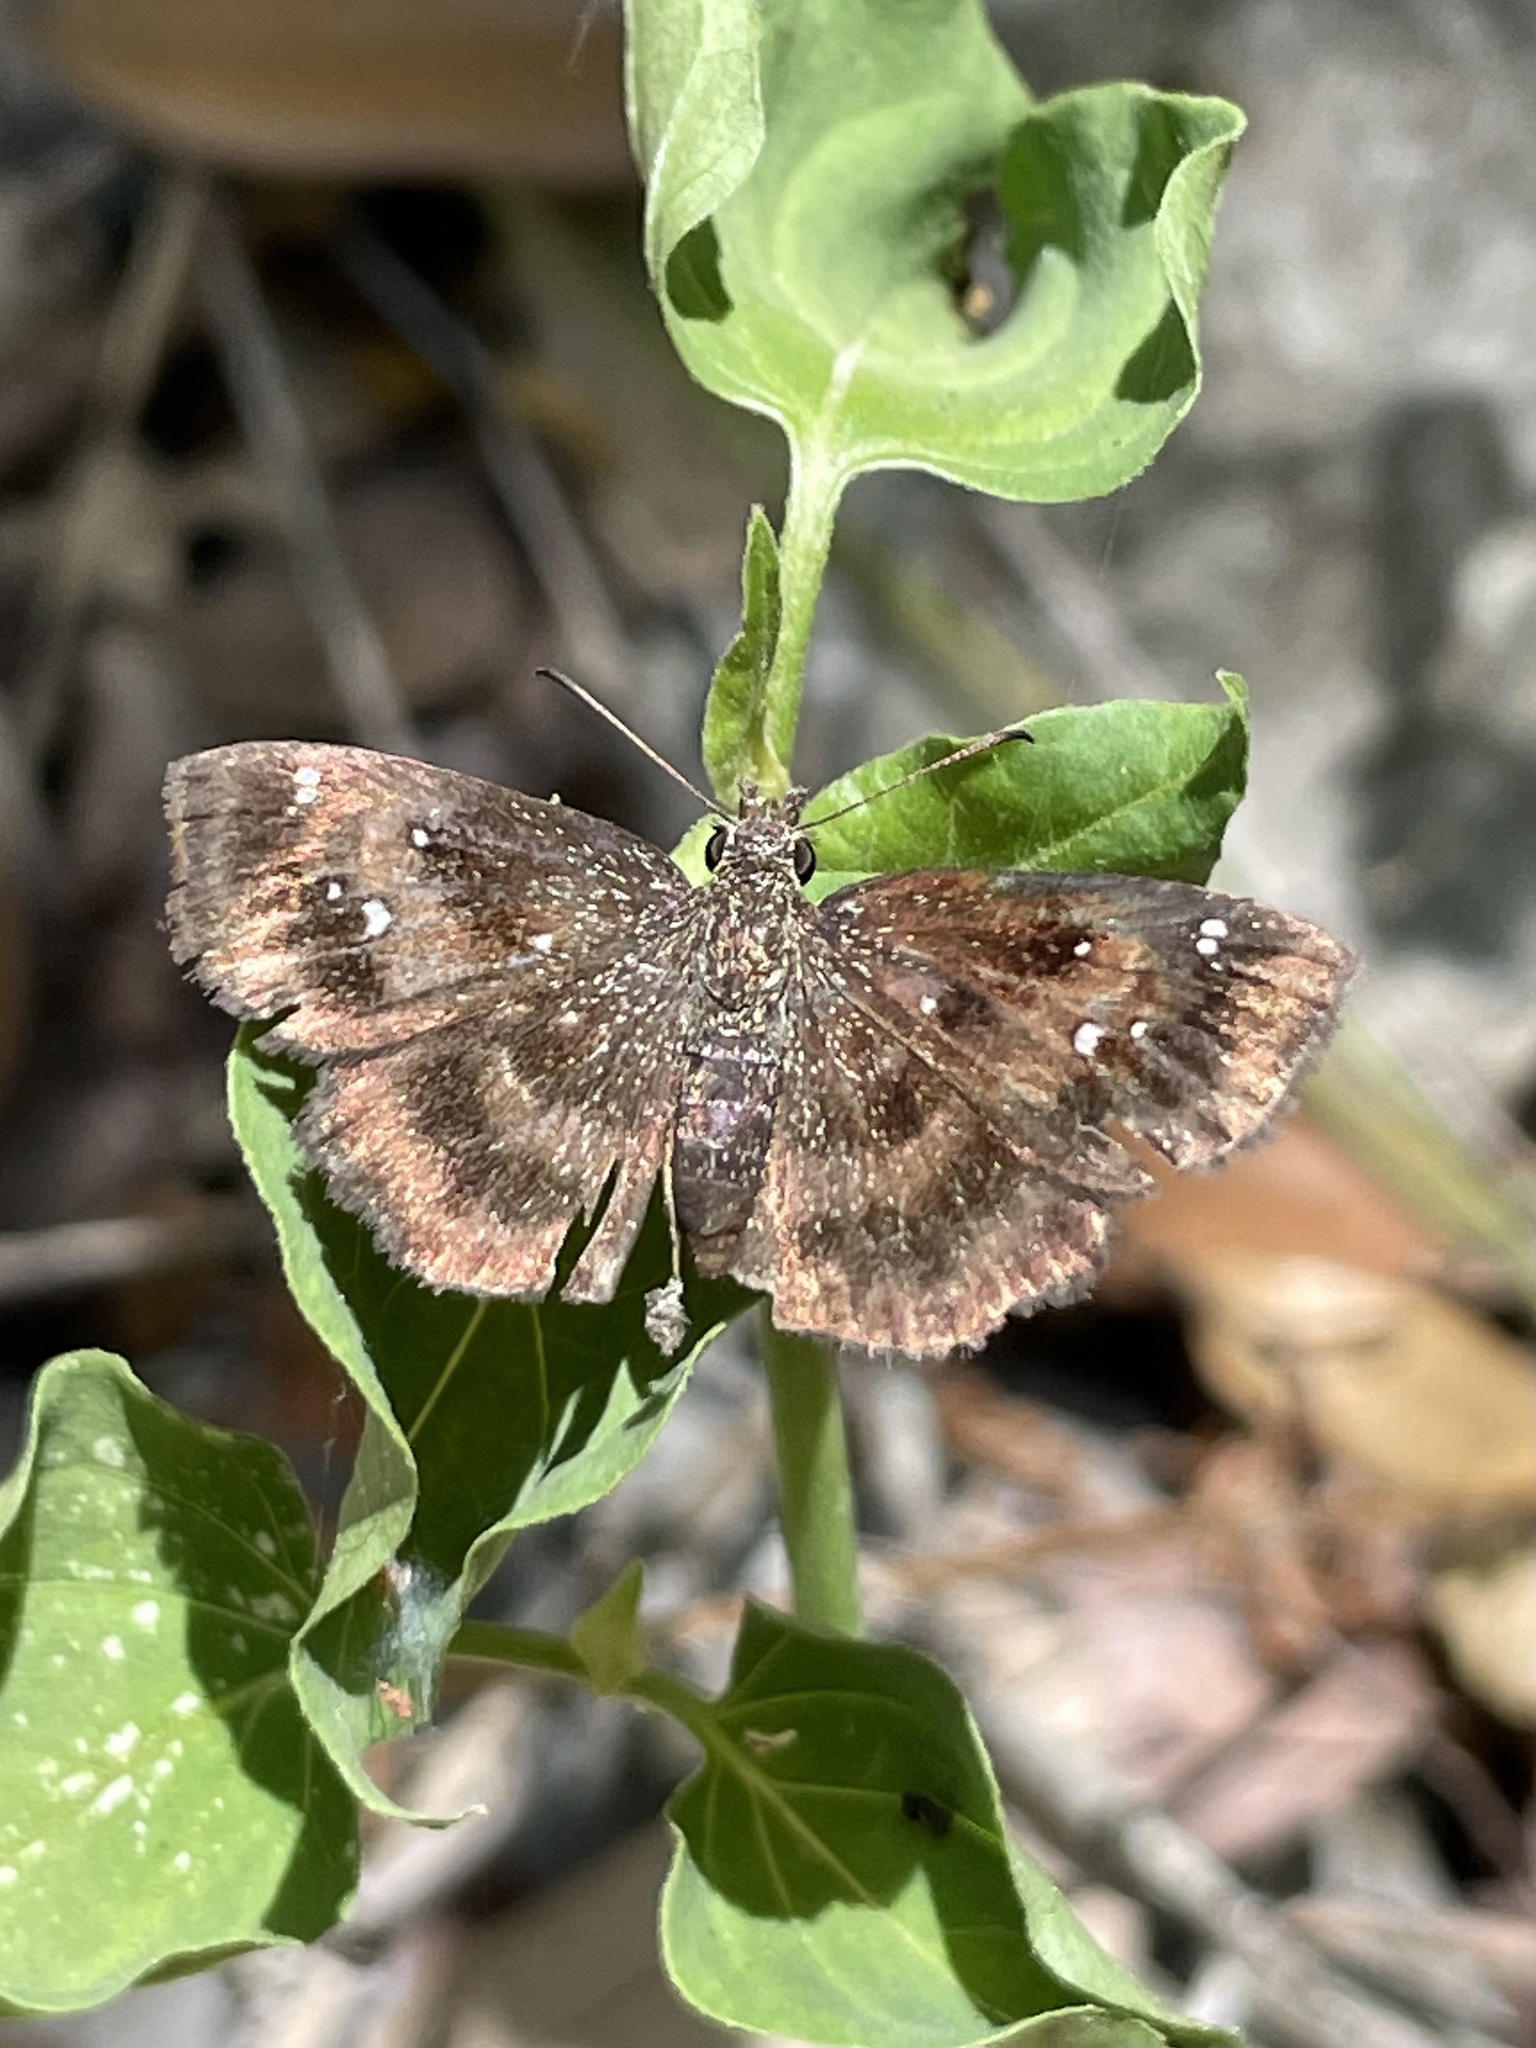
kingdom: Animalia
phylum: Arthropoda
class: Insecta
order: Lepidoptera
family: Hesperiidae
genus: Staphylus
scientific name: Staphylus mazans
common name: Mazans scallopwing
